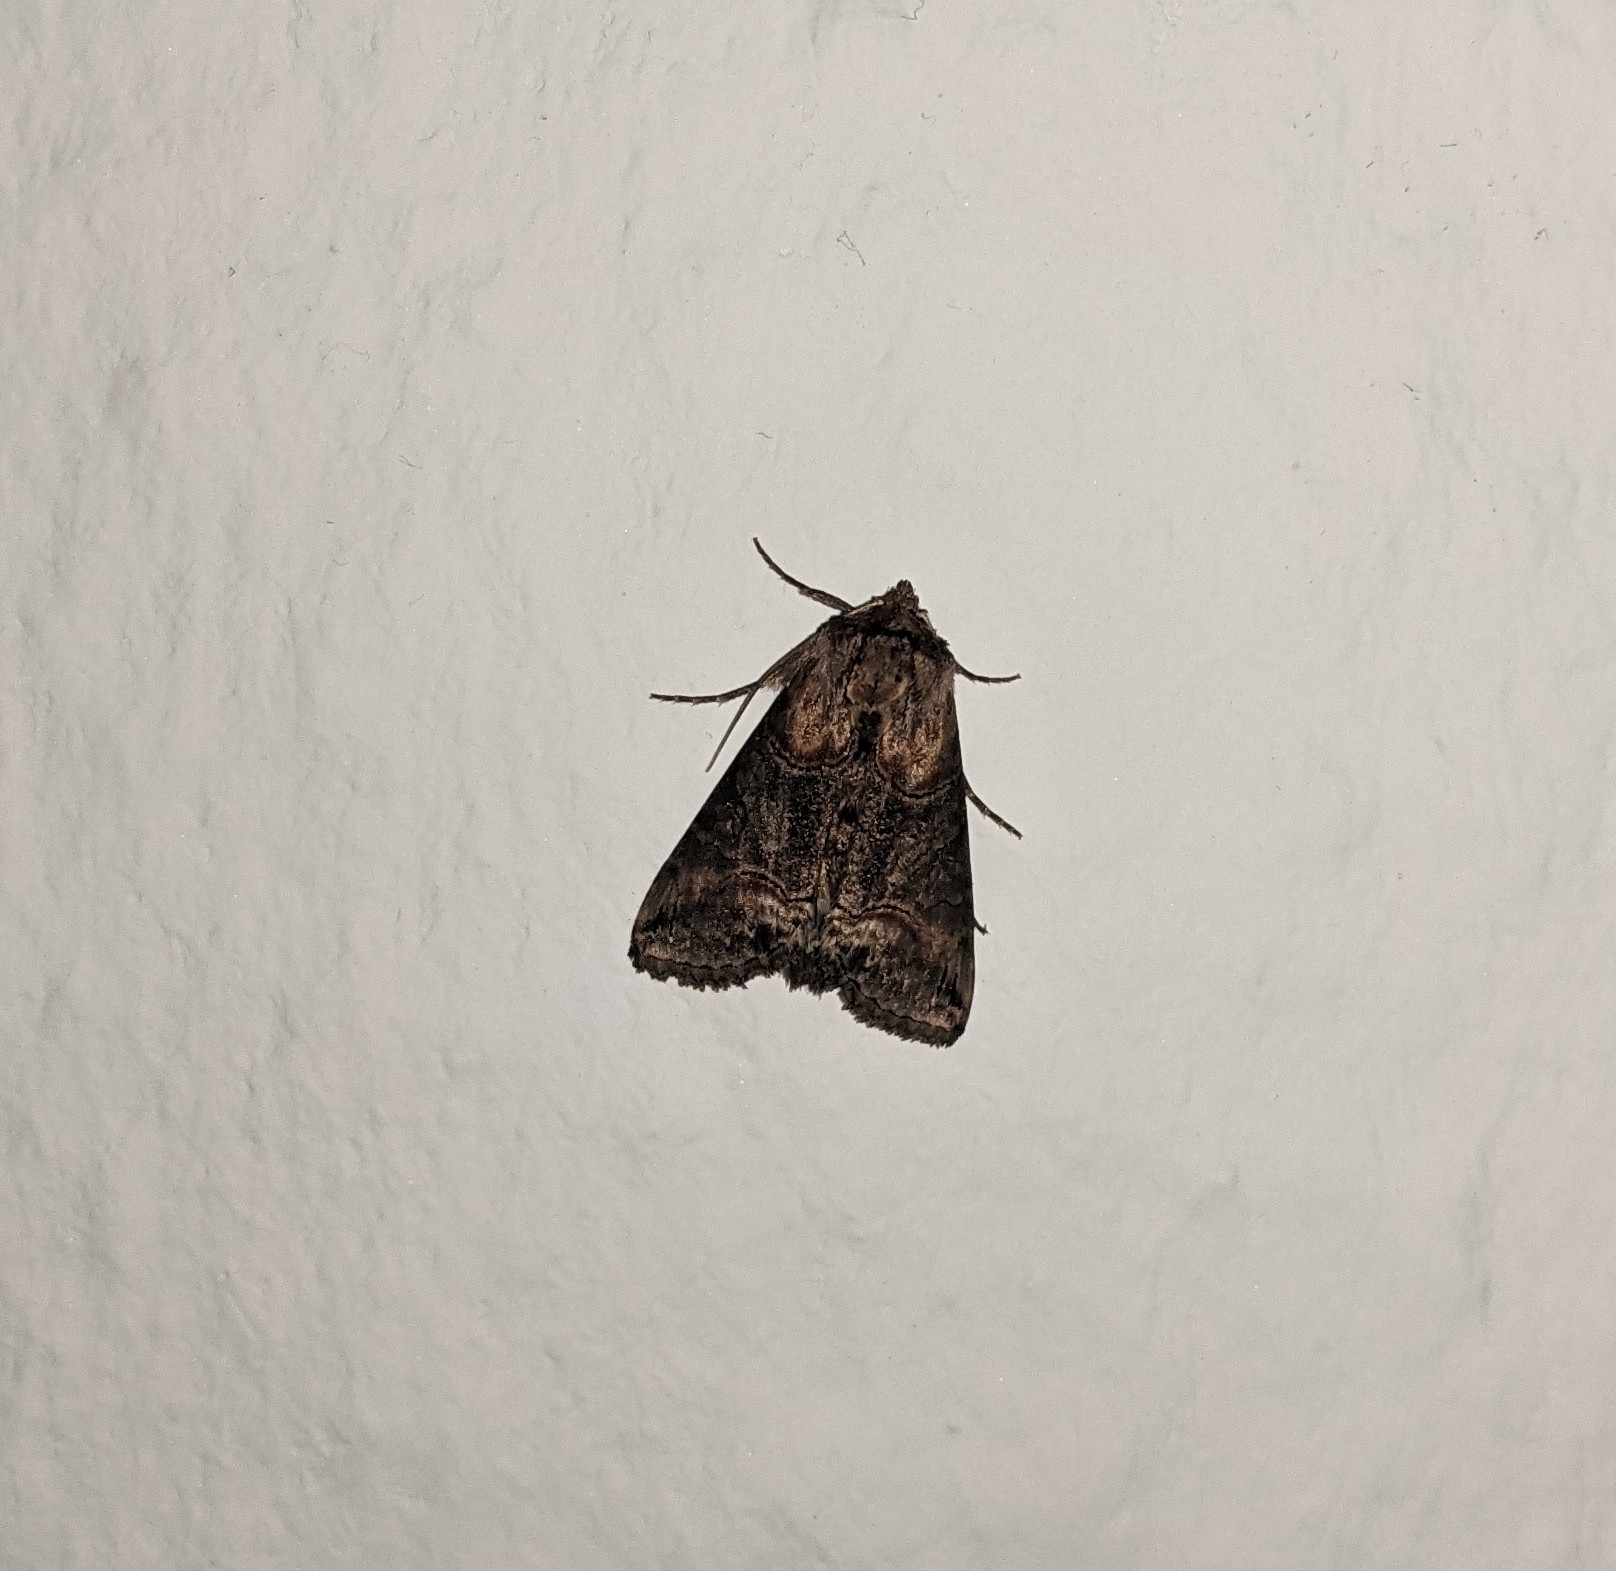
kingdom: Animalia
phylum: Arthropoda
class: Insecta
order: Lepidoptera
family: Noctuidae
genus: Abrostola
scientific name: Abrostola triplasia
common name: Dark spectacle
